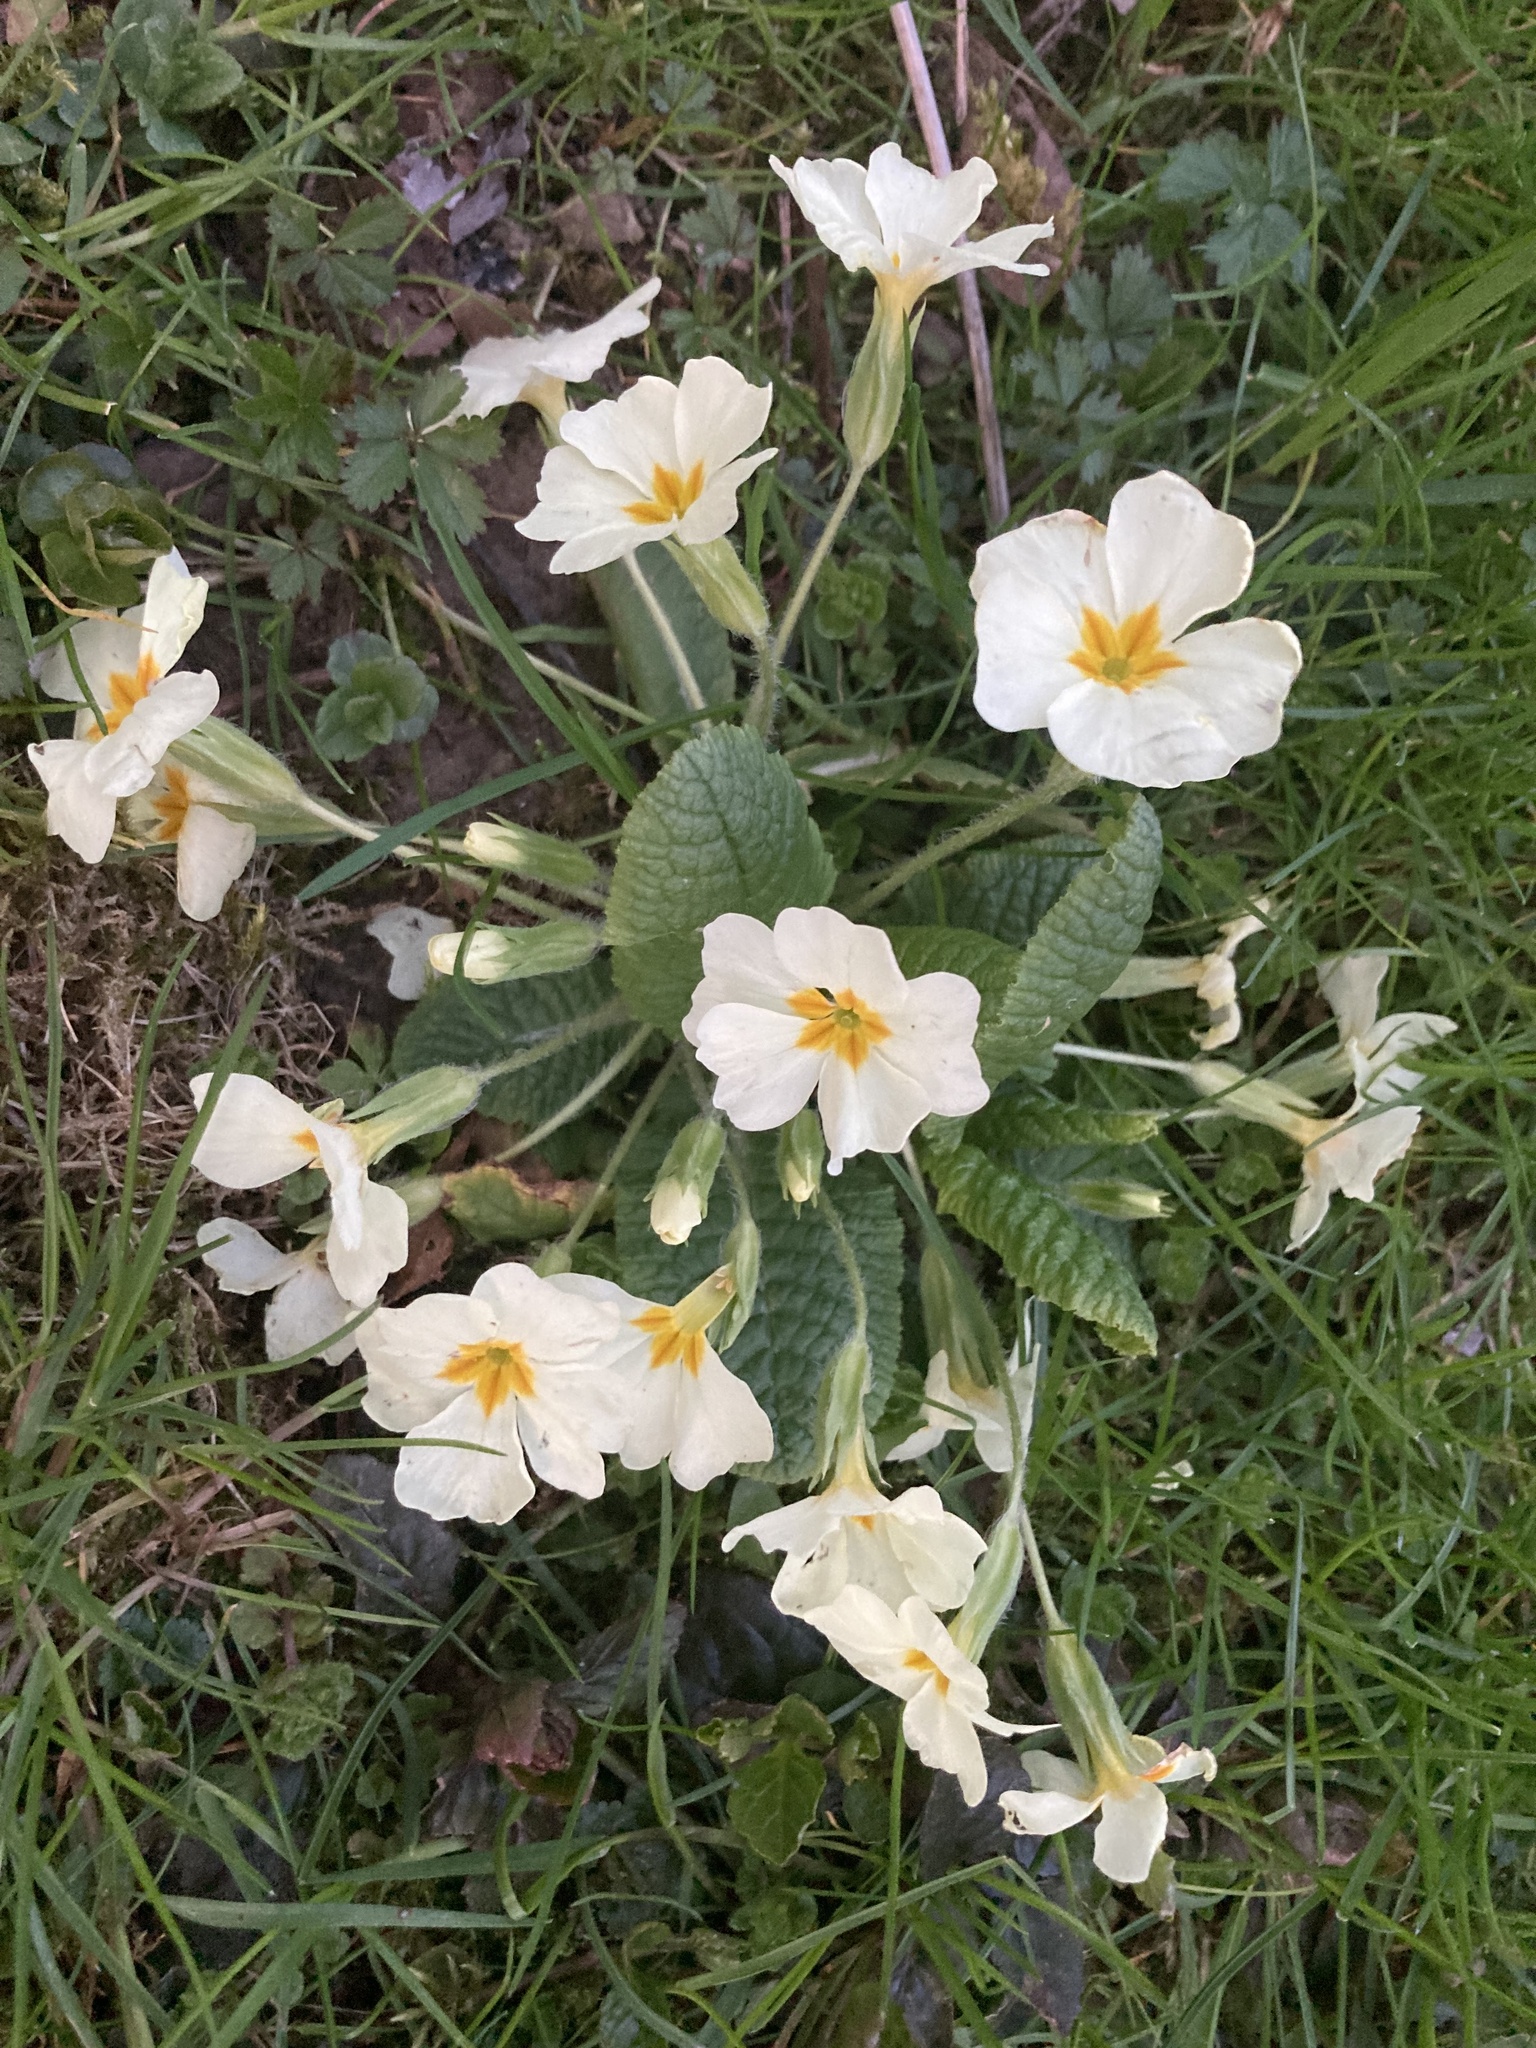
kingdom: Plantae
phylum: Tracheophyta
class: Magnoliopsida
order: Ericales
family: Primulaceae
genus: Primula
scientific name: Primula vulgaris
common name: Primrose
